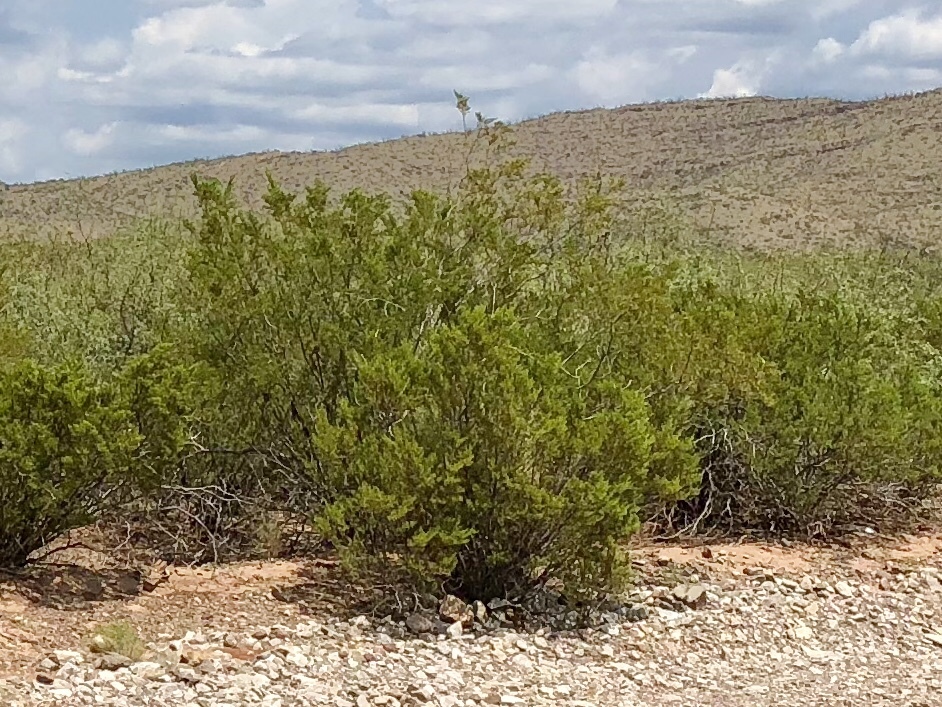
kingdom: Plantae
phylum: Tracheophyta
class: Magnoliopsida
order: Zygophyllales
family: Zygophyllaceae
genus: Larrea
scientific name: Larrea tridentata
